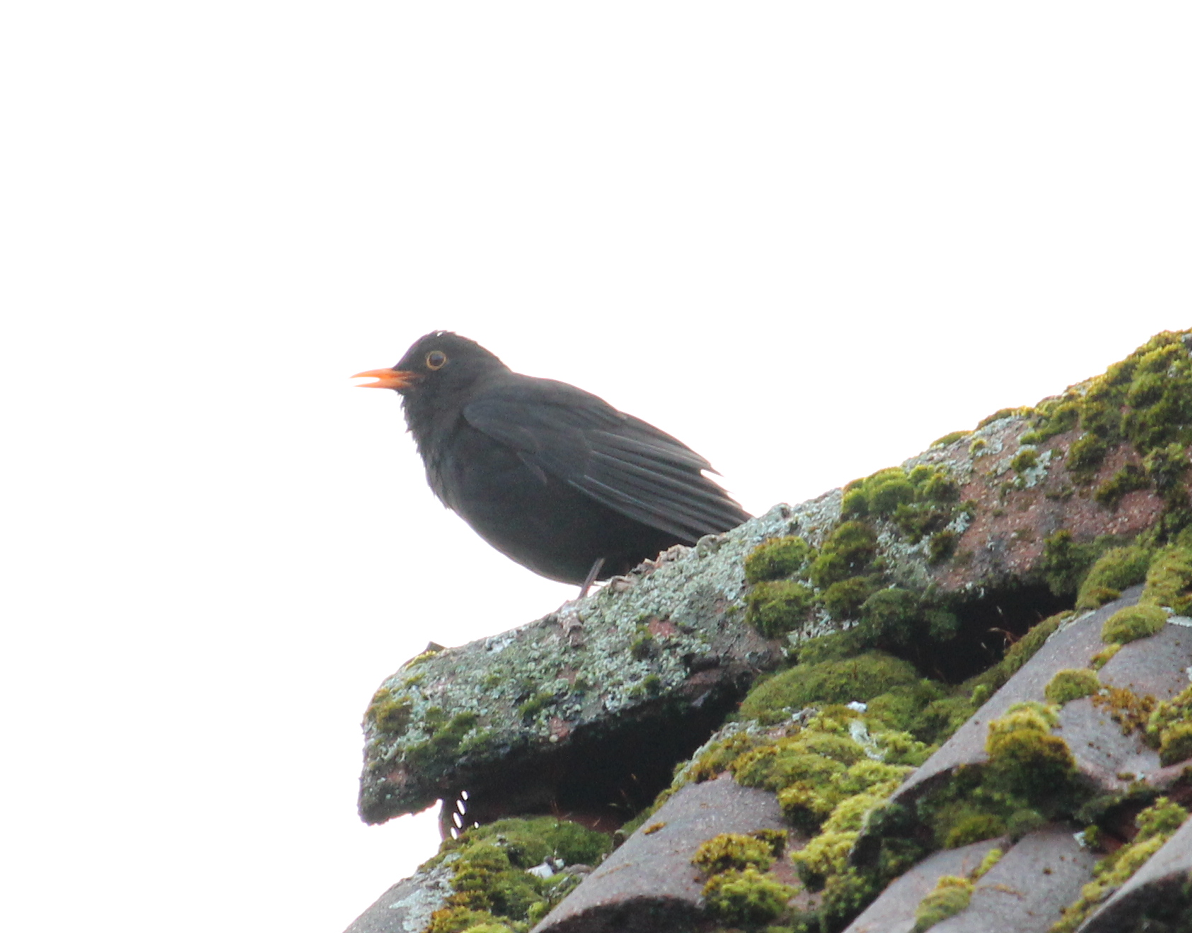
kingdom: Animalia
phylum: Chordata
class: Aves
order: Passeriformes
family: Turdidae
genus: Turdus
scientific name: Turdus merula
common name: Common blackbird
